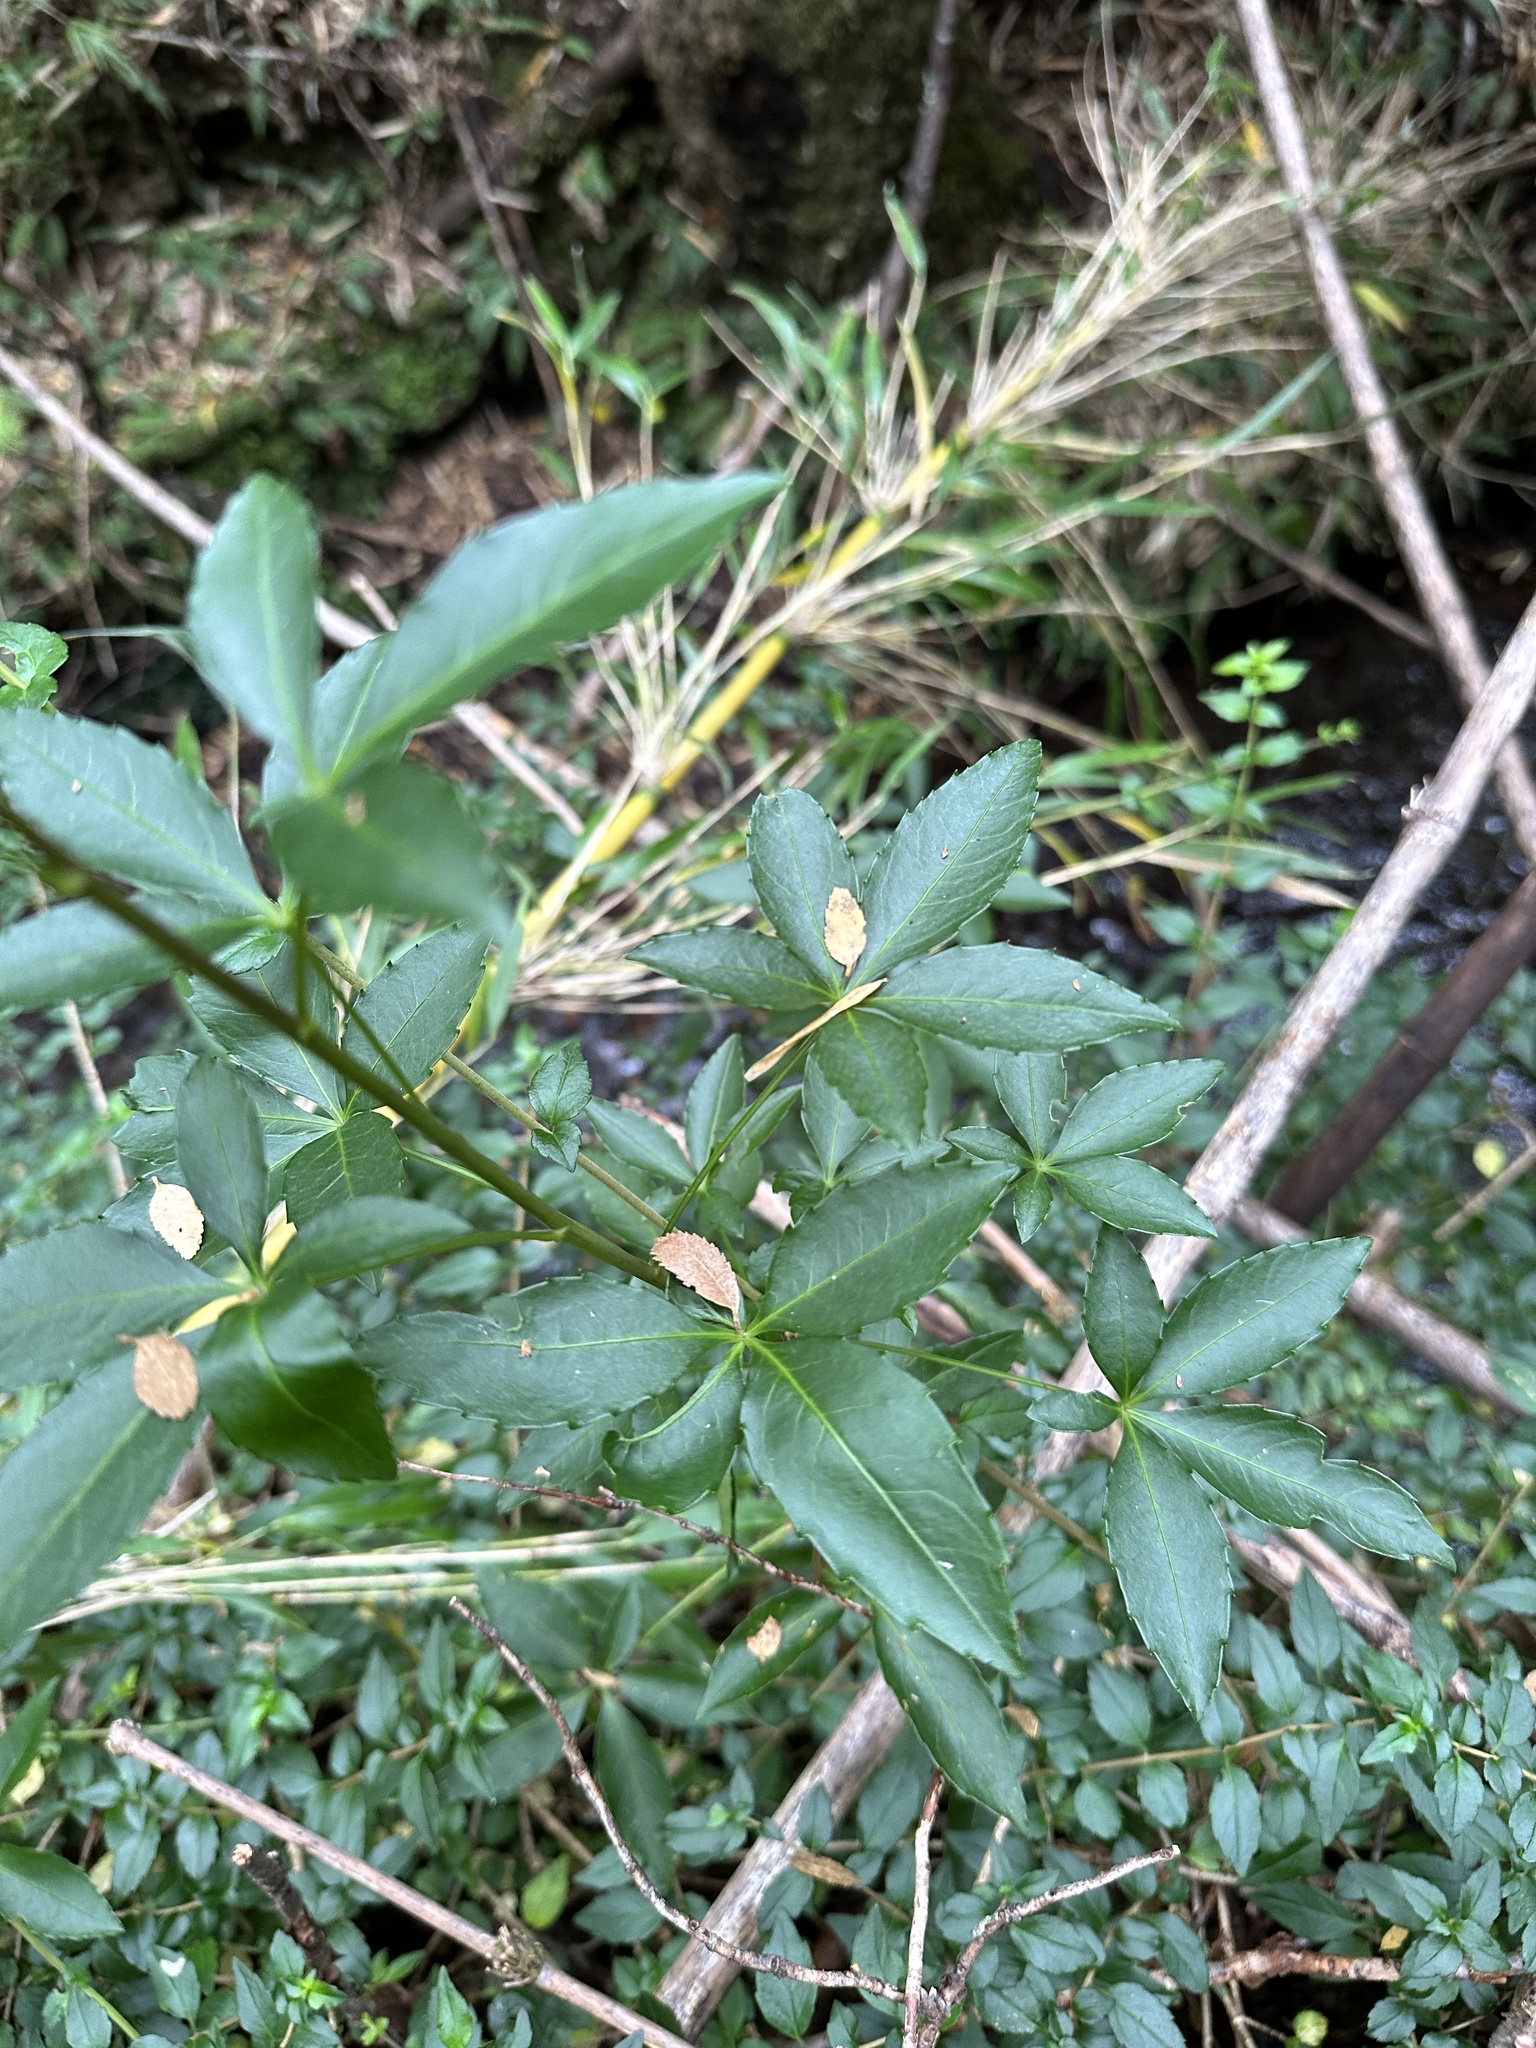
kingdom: Plantae
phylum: Tracheophyta
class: Magnoliopsida
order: Apiales
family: Araliaceae
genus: Raukaua
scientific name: Raukaua laetevirens
